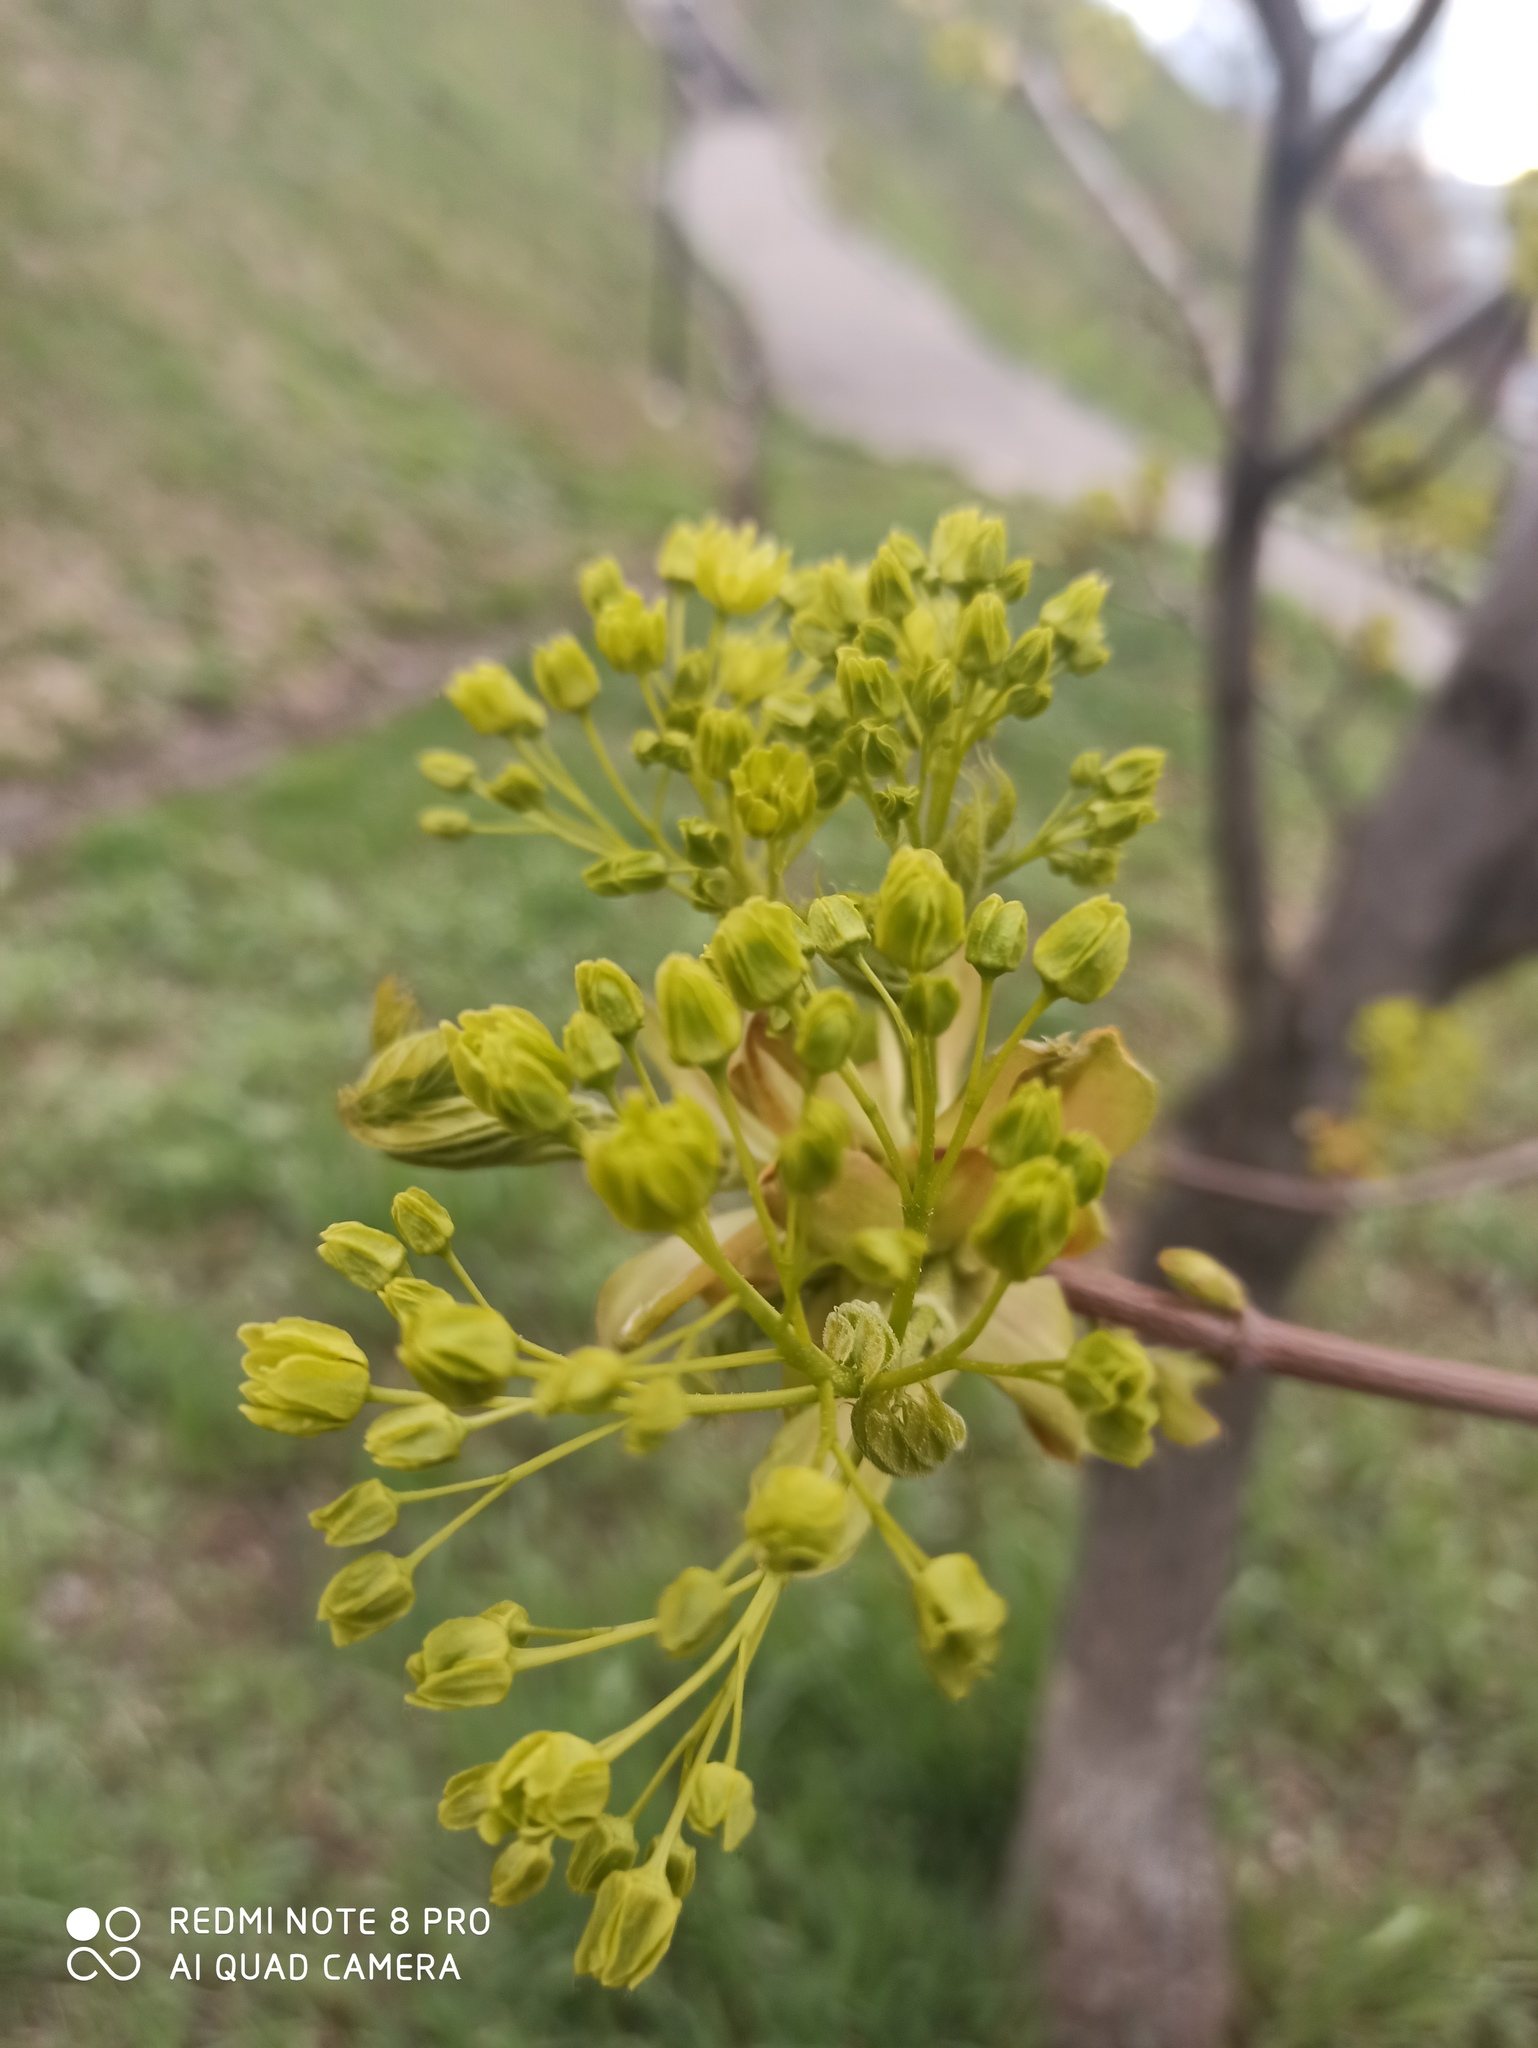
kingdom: Plantae
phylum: Tracheophyta
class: Magnoliopsida
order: Sapindales
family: Sapindaceae
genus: Acer
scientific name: Acer platanoides
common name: Norway maple
